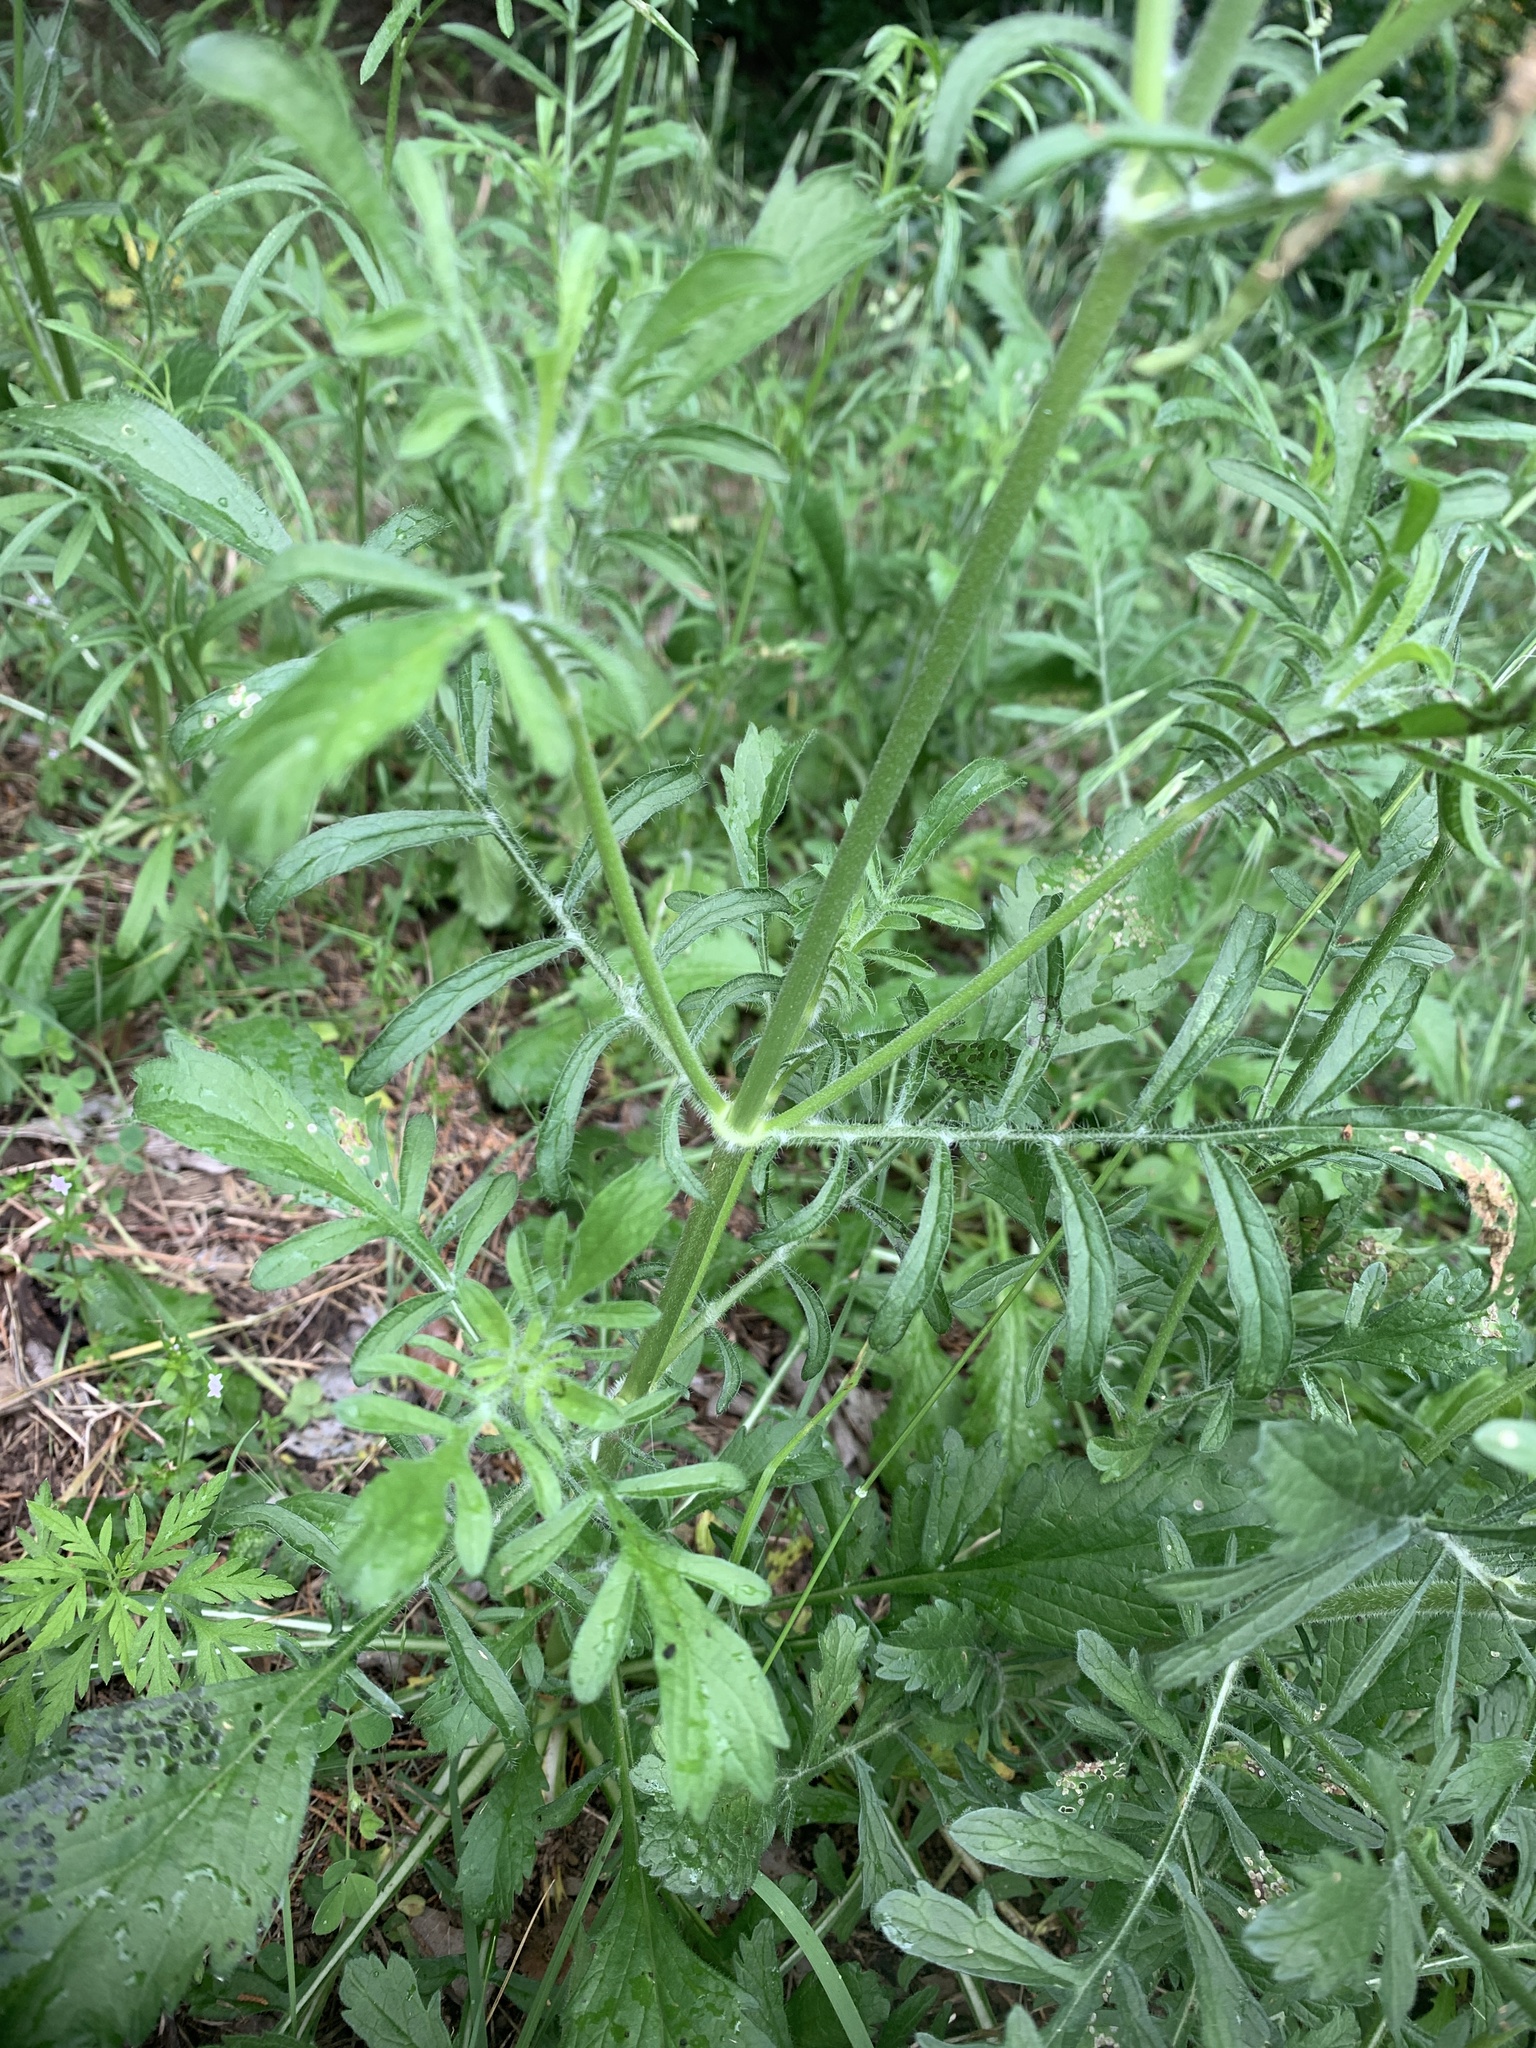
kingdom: Plantae
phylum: Tracheophyta
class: Magnoliopsida
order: Dipsacales
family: Caprifoliaceae
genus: Sixalix
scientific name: Sixalix atropurpurea
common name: Sweet scabious
